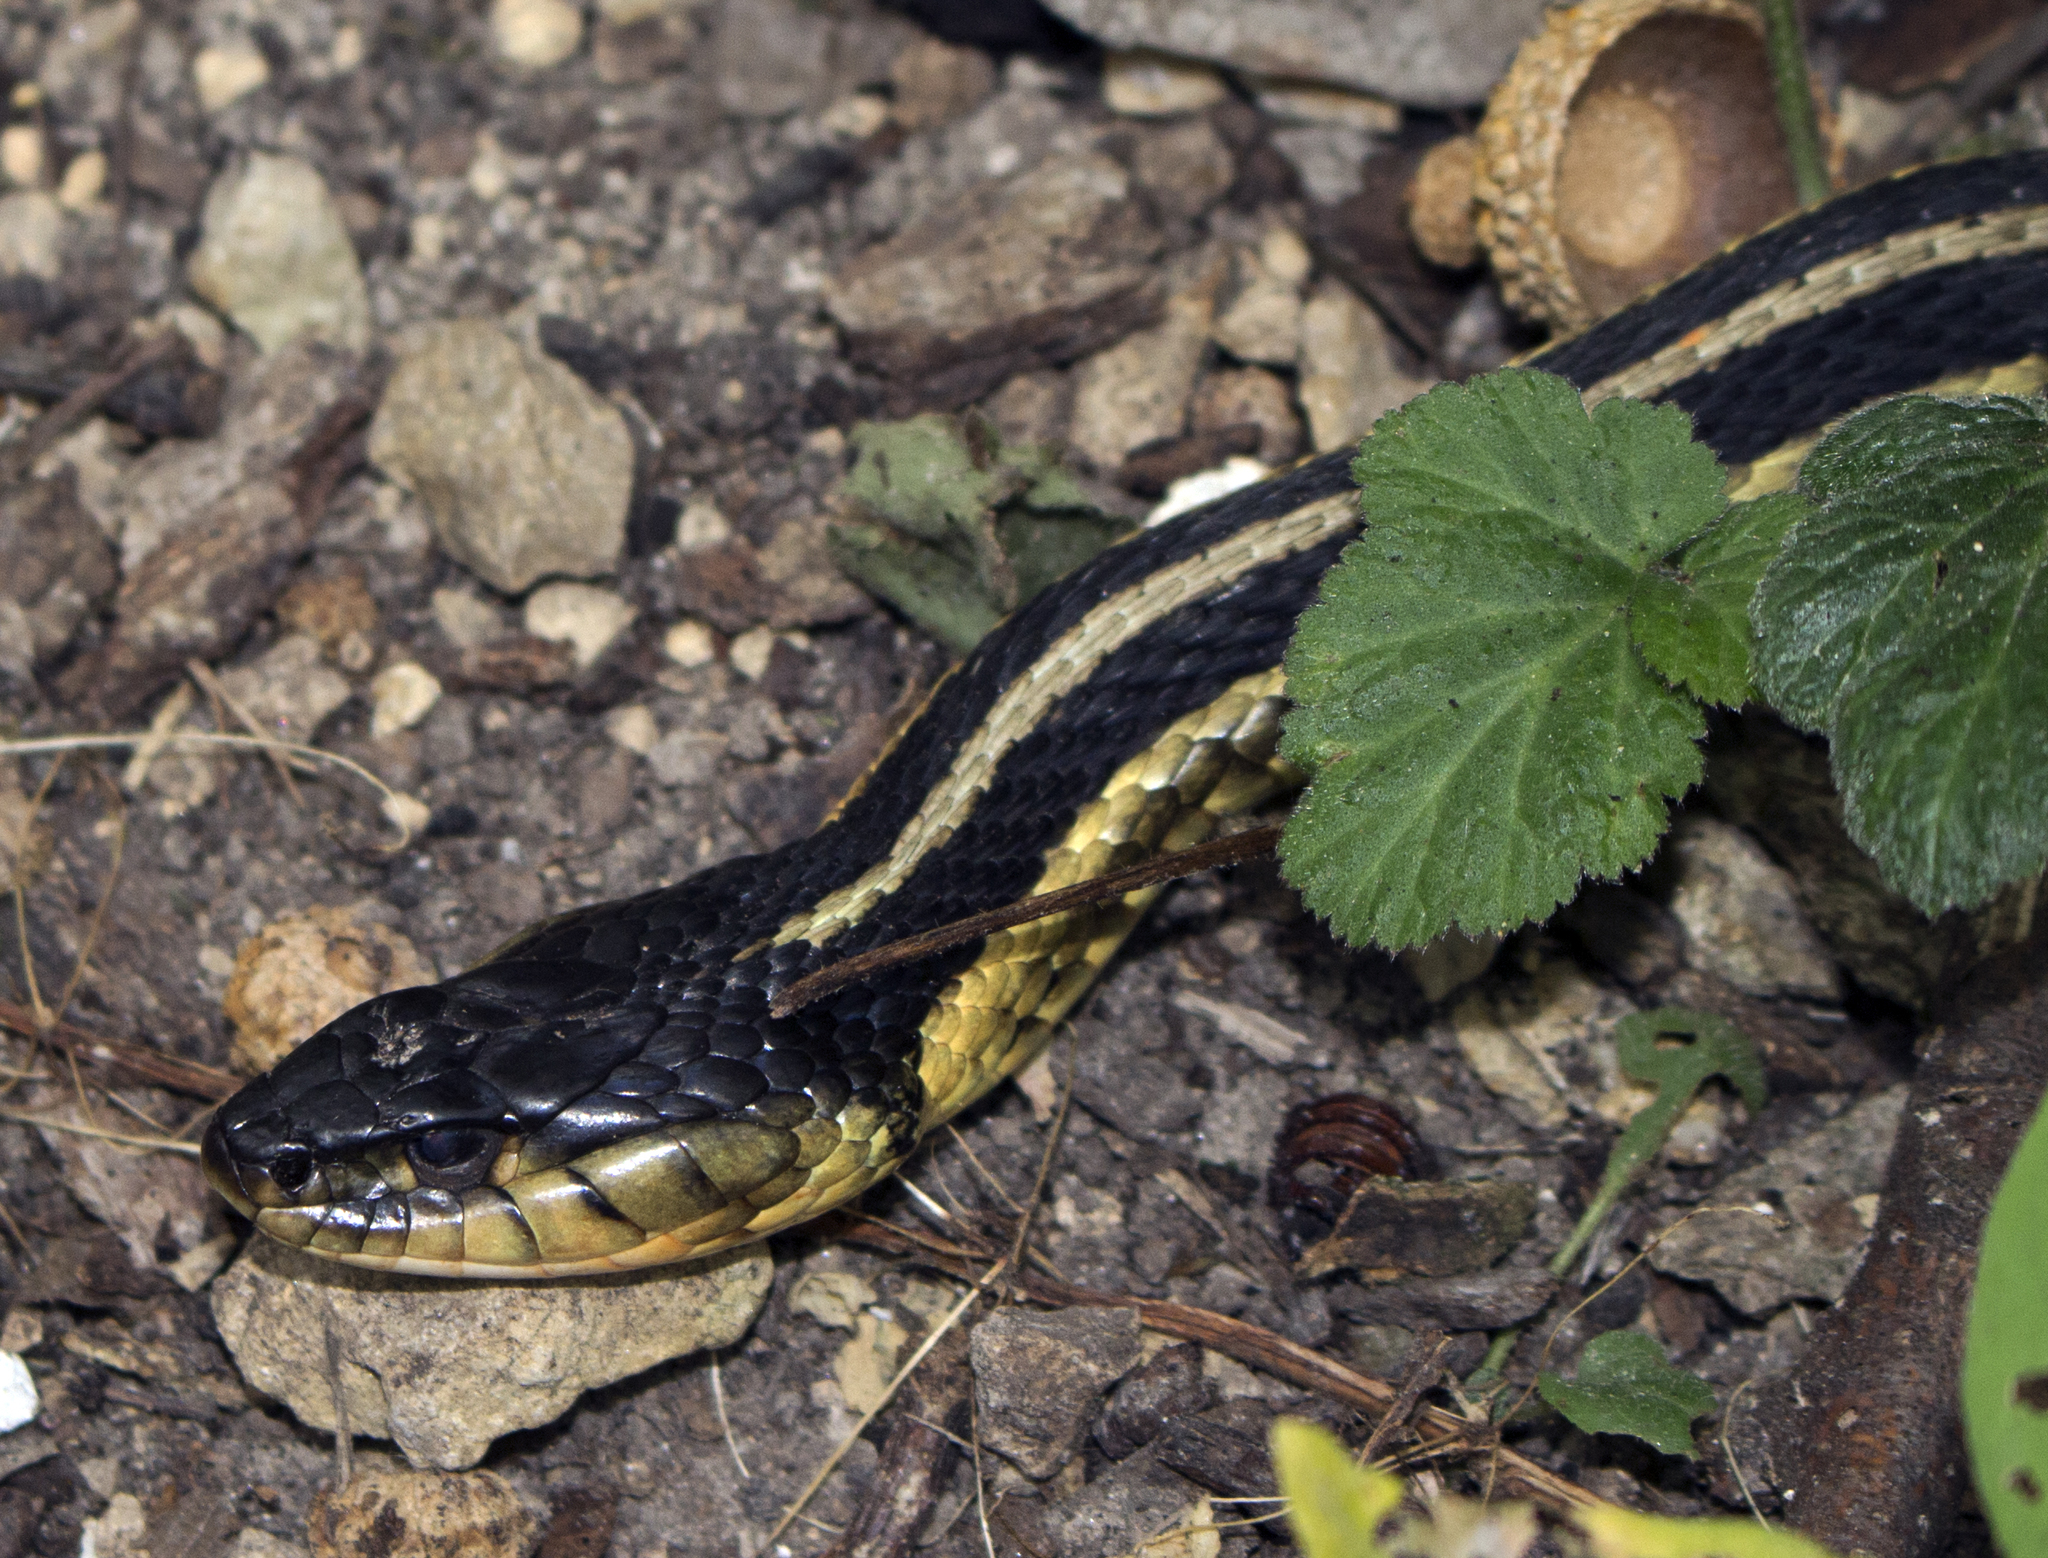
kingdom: Animalia
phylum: Chordata
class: Squamata
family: Colubridae
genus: Thamnophis
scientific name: Thamnophis sirtalis
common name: Common garter snake
